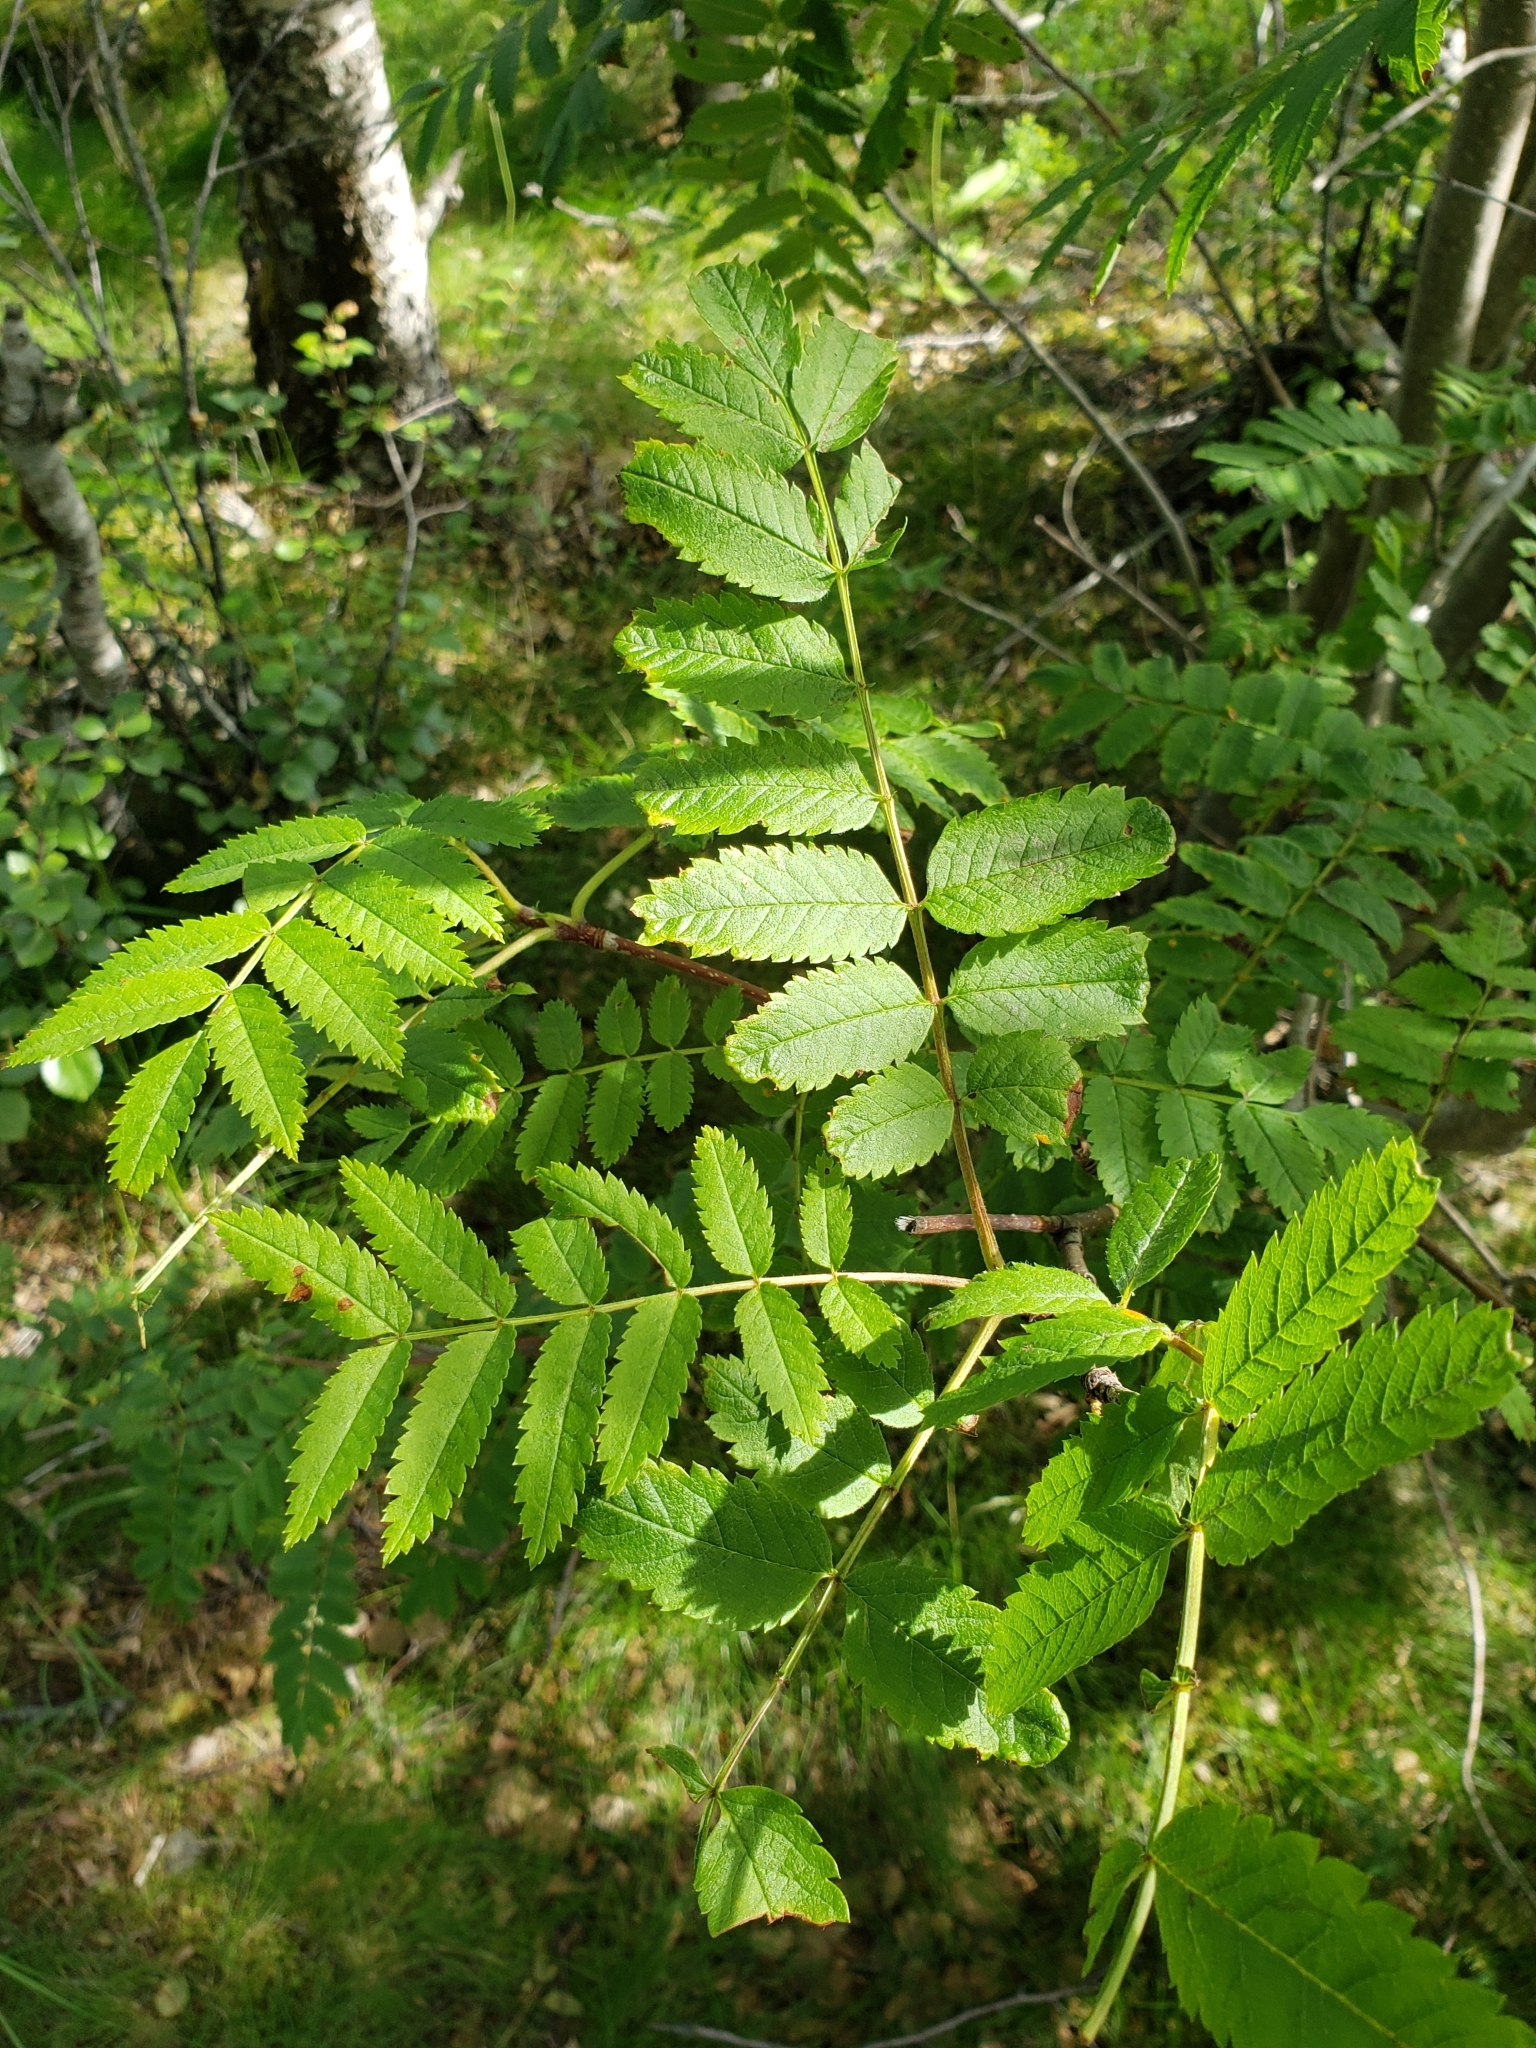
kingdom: Plantae
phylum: Tracheophyta
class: Magnoliopsida
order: Rosales
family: Rosaceae
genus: Sorbus
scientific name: Sorbus aucuparia
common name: Rowan
